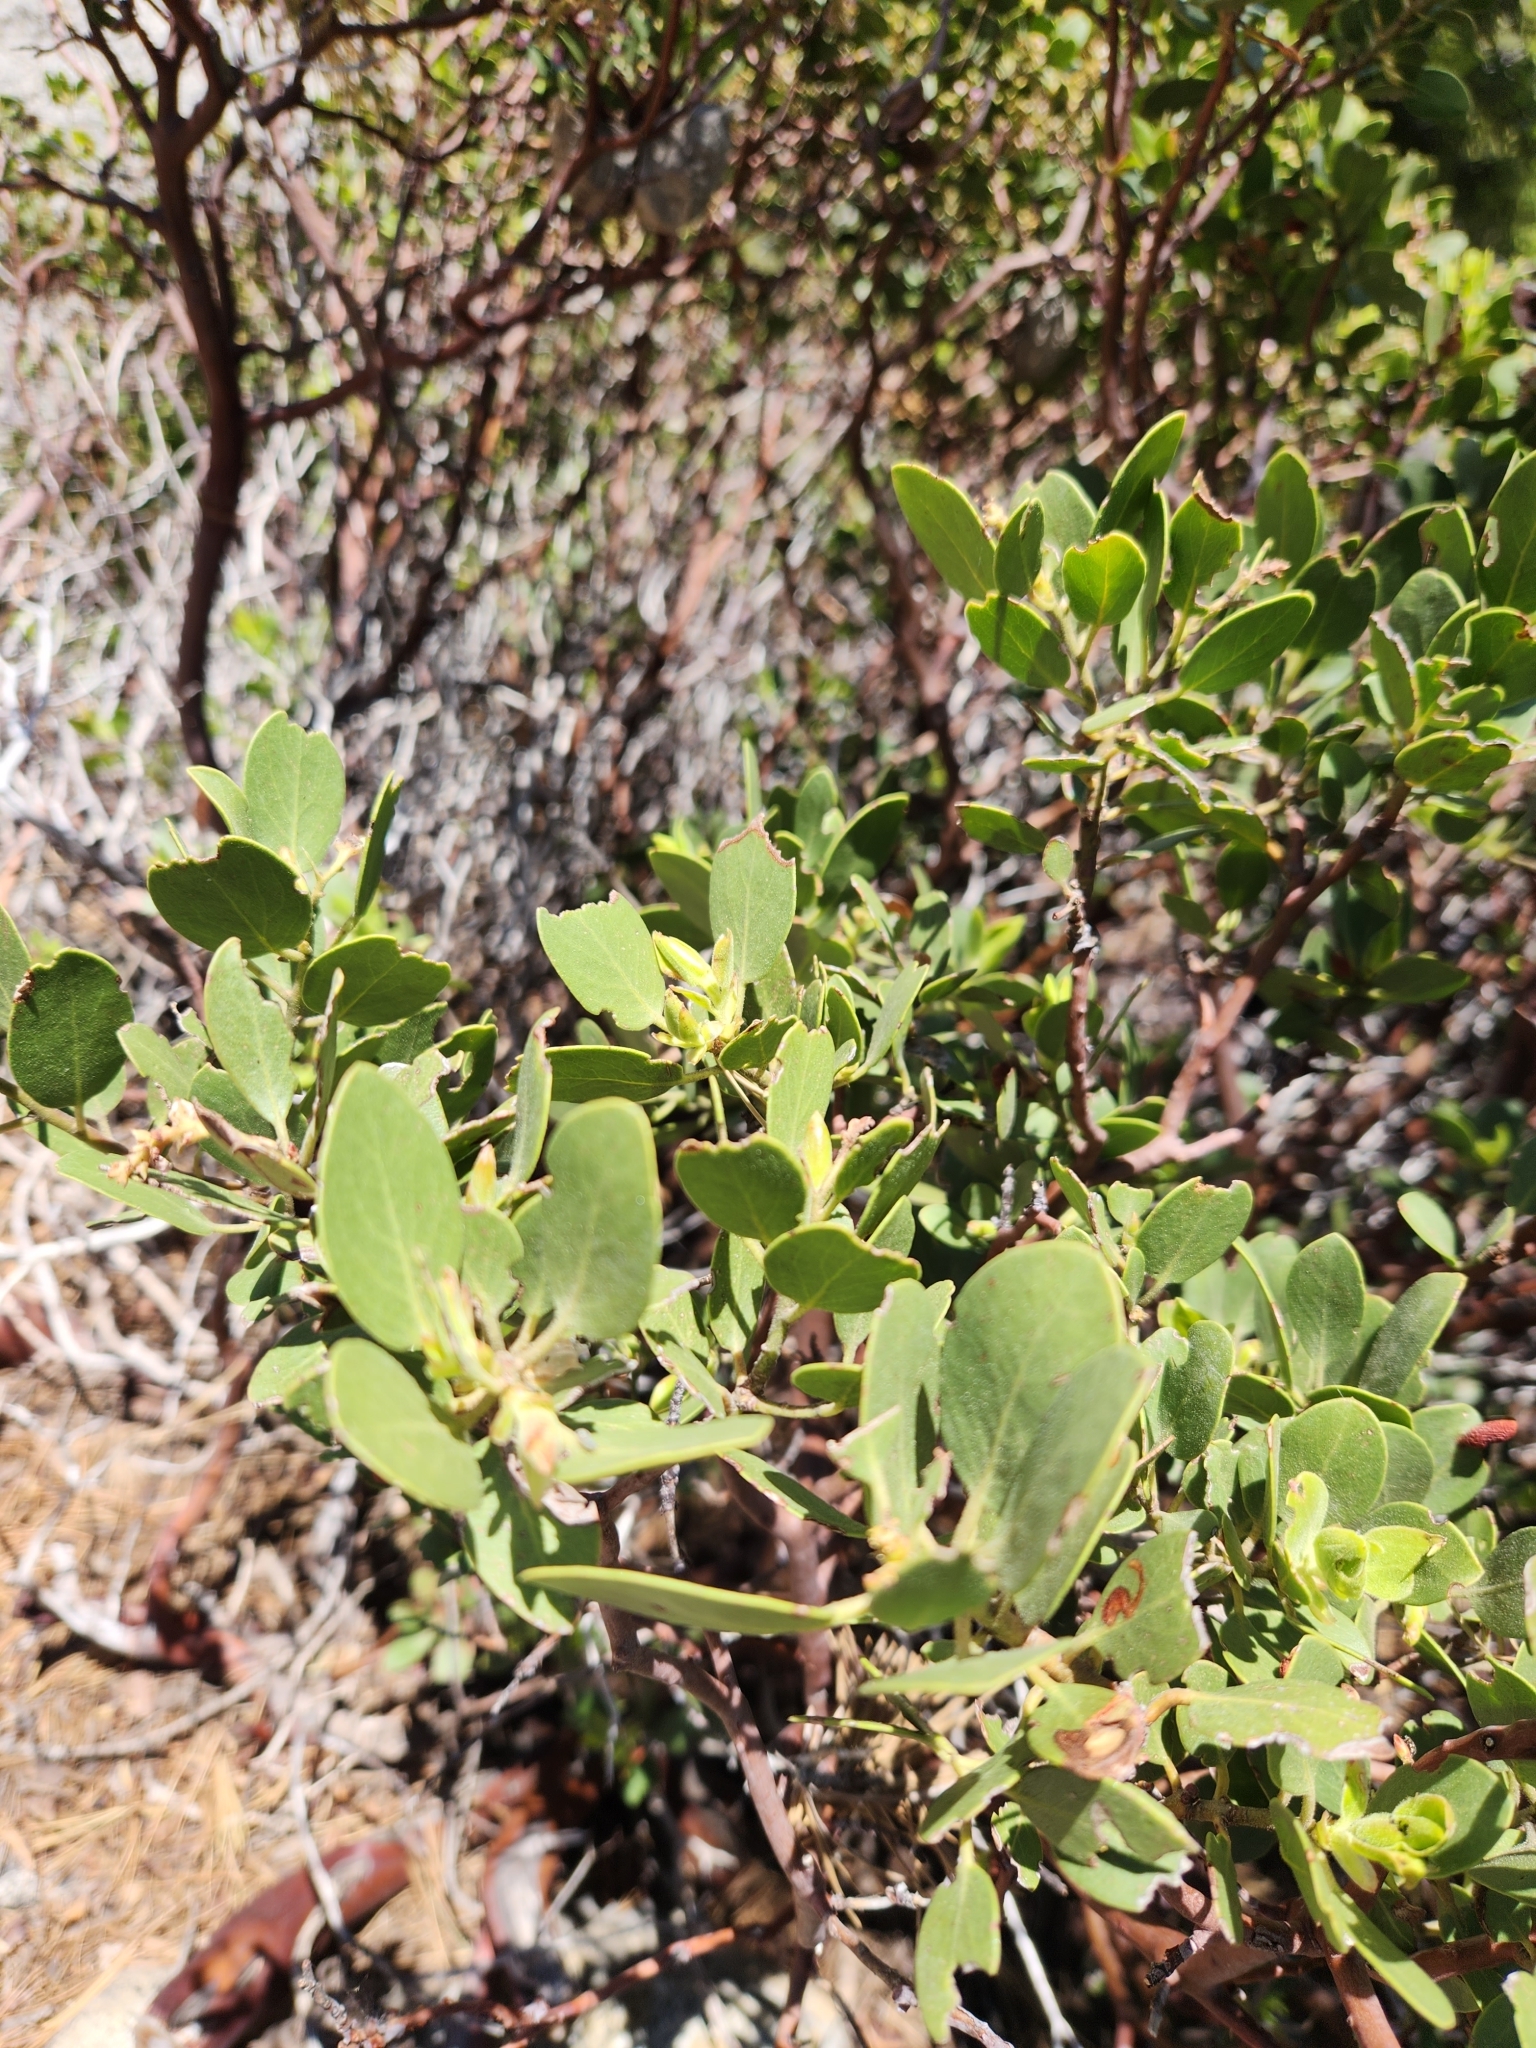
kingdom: Plantae
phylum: Tracheophyta
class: Magnoliopsida
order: Ericales
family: Ericaceae
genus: Arctostaphylos
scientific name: Arctostaphylos patula
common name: Green-leaf manzanita
